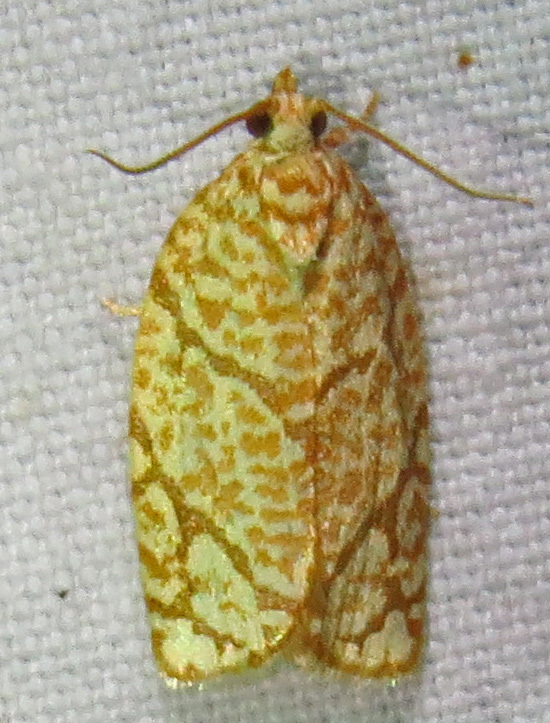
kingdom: Animalia
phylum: Arthropoda
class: Insecta
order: Lepidoptera
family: Tortricidae
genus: Argyrotaenia
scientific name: Argyrotaenia quercifoliana
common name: Yellow-winged oak leafroller moth
